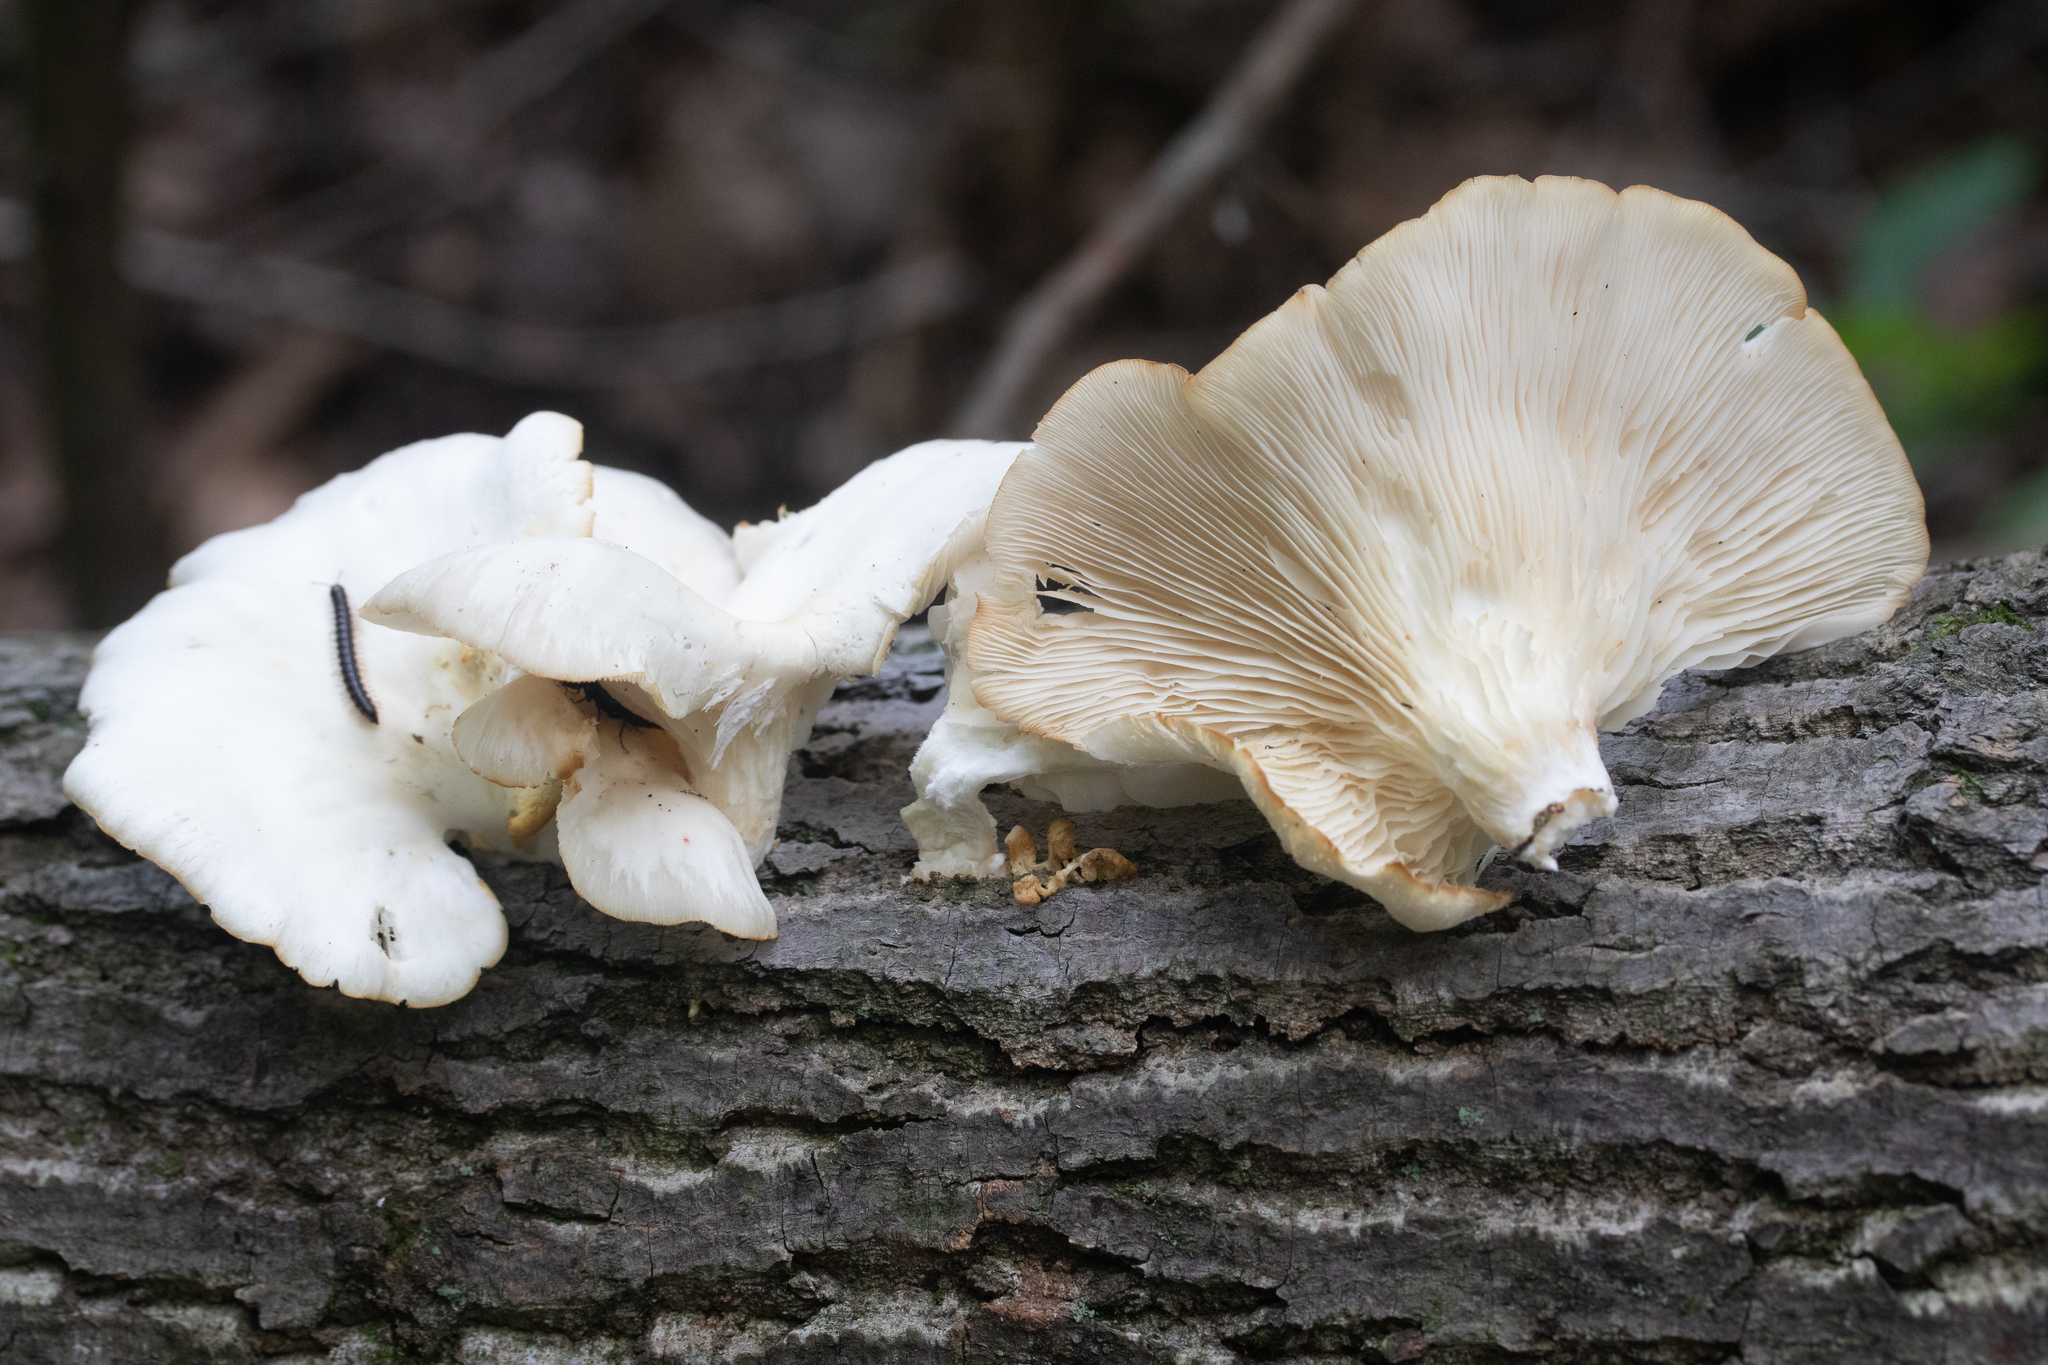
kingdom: Fungi
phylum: Basidiomycota
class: Agaricomycetes
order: Agaricales
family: Pleurotaceae
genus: Pleurotus
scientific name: Pleurotus pulmonarius
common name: Pale oyster
